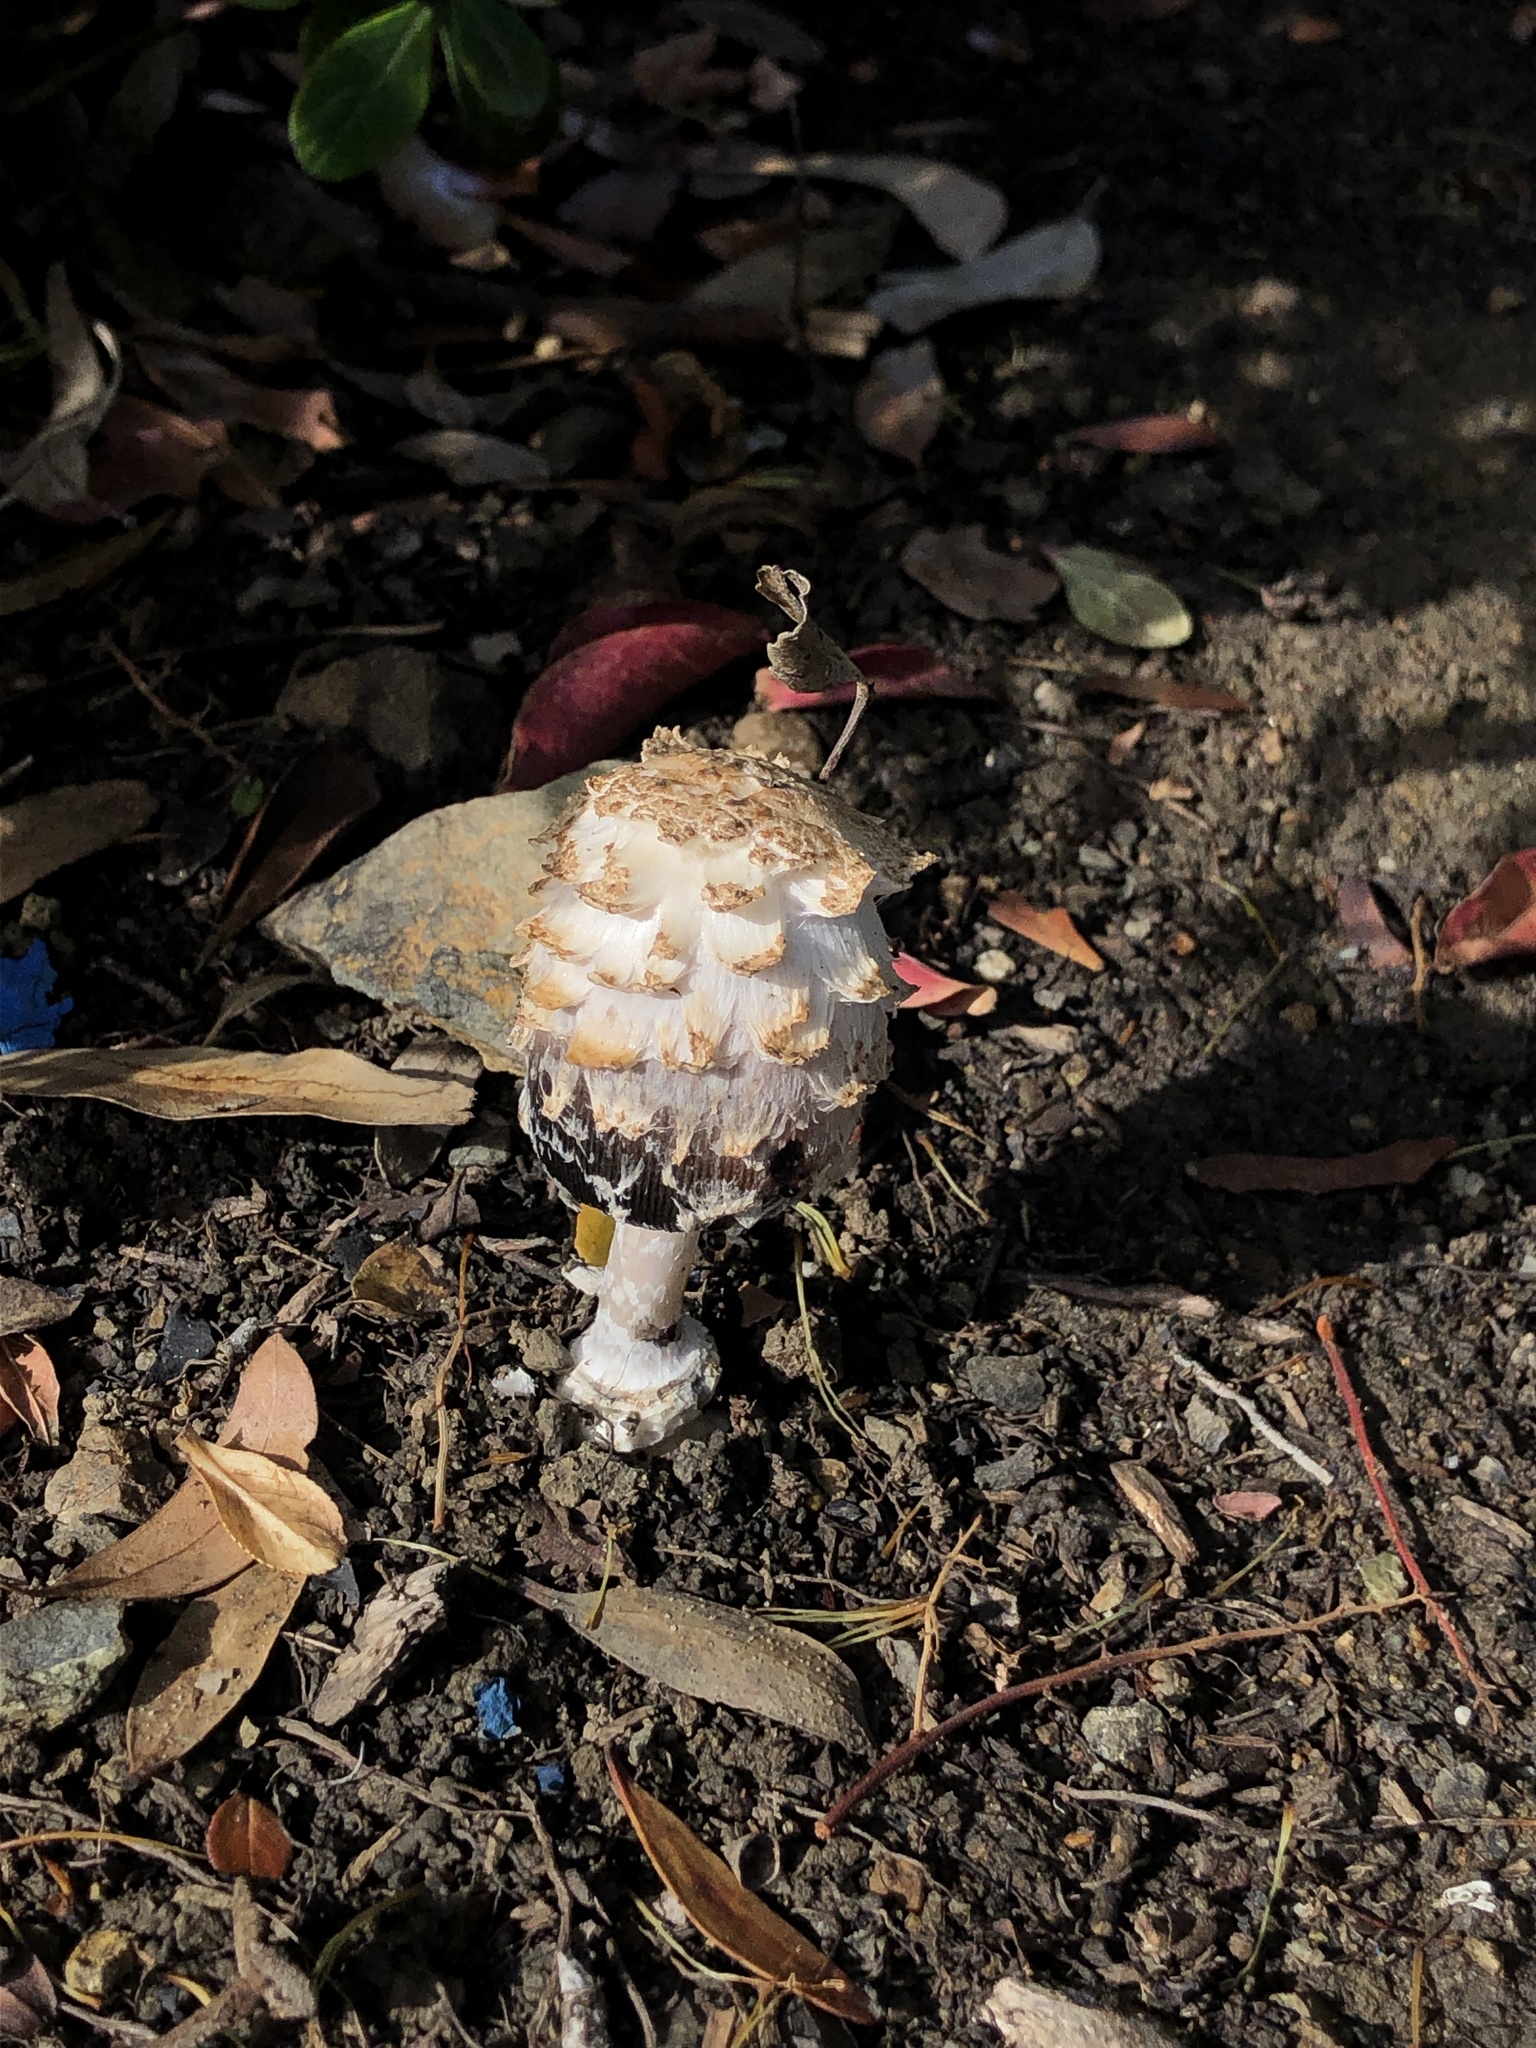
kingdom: Fungi
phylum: Basidiomycota
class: Agaricomycetes
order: Agaricales
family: Agaricaceae
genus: Coprinus
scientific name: Coprinus comatus
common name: Lawyer's wig
